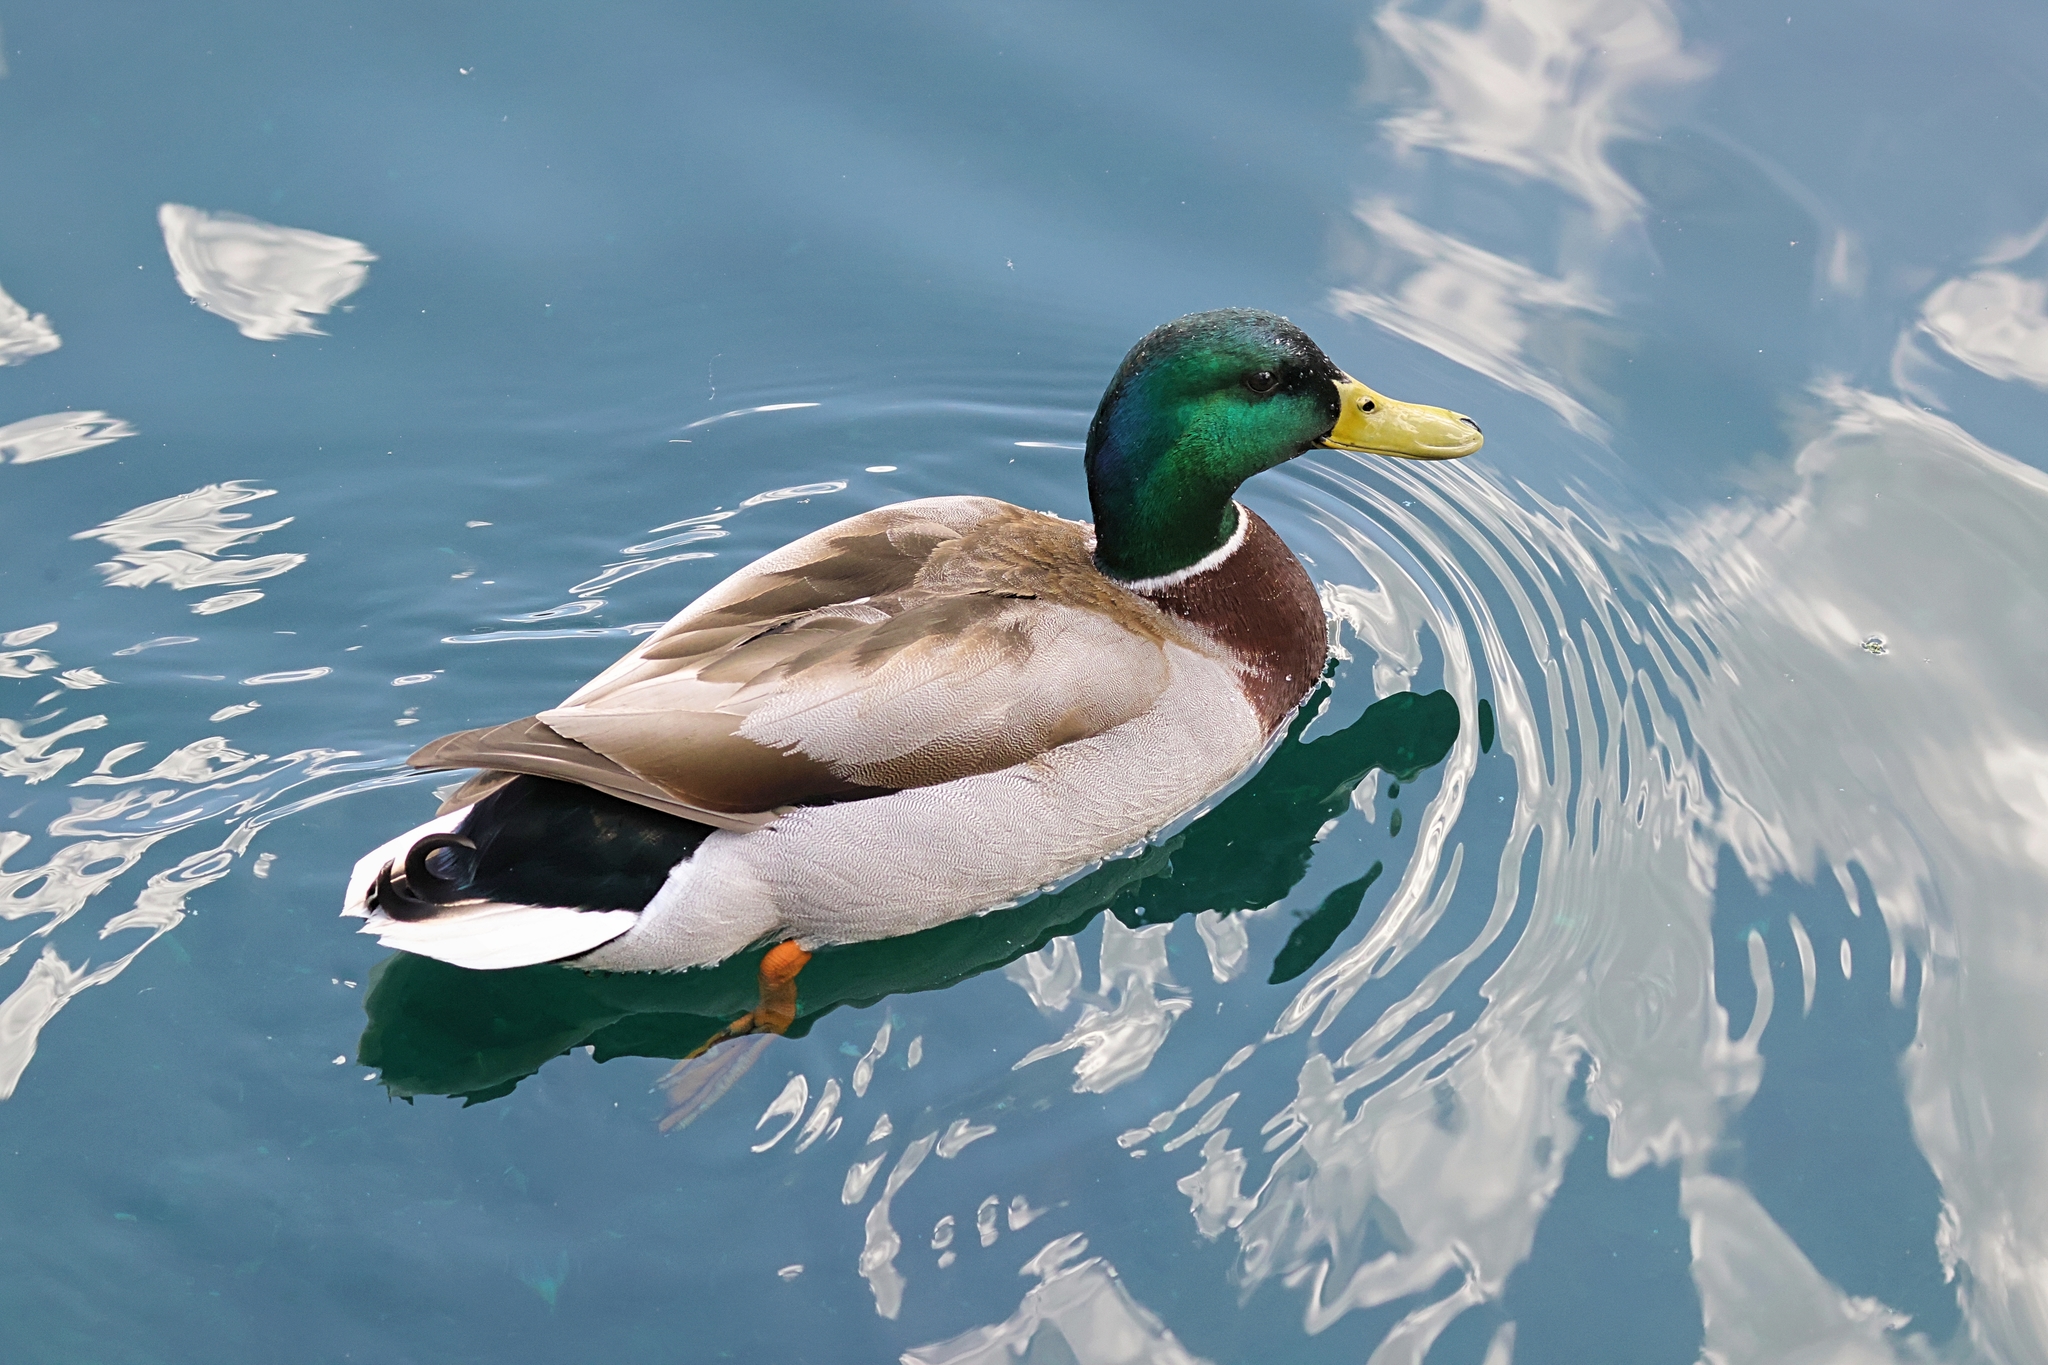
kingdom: Animalia
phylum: Chordata
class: Aves
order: Anseriformes
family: Anatidae
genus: Anas
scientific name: Anas platyrhynchos
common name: Mallard
